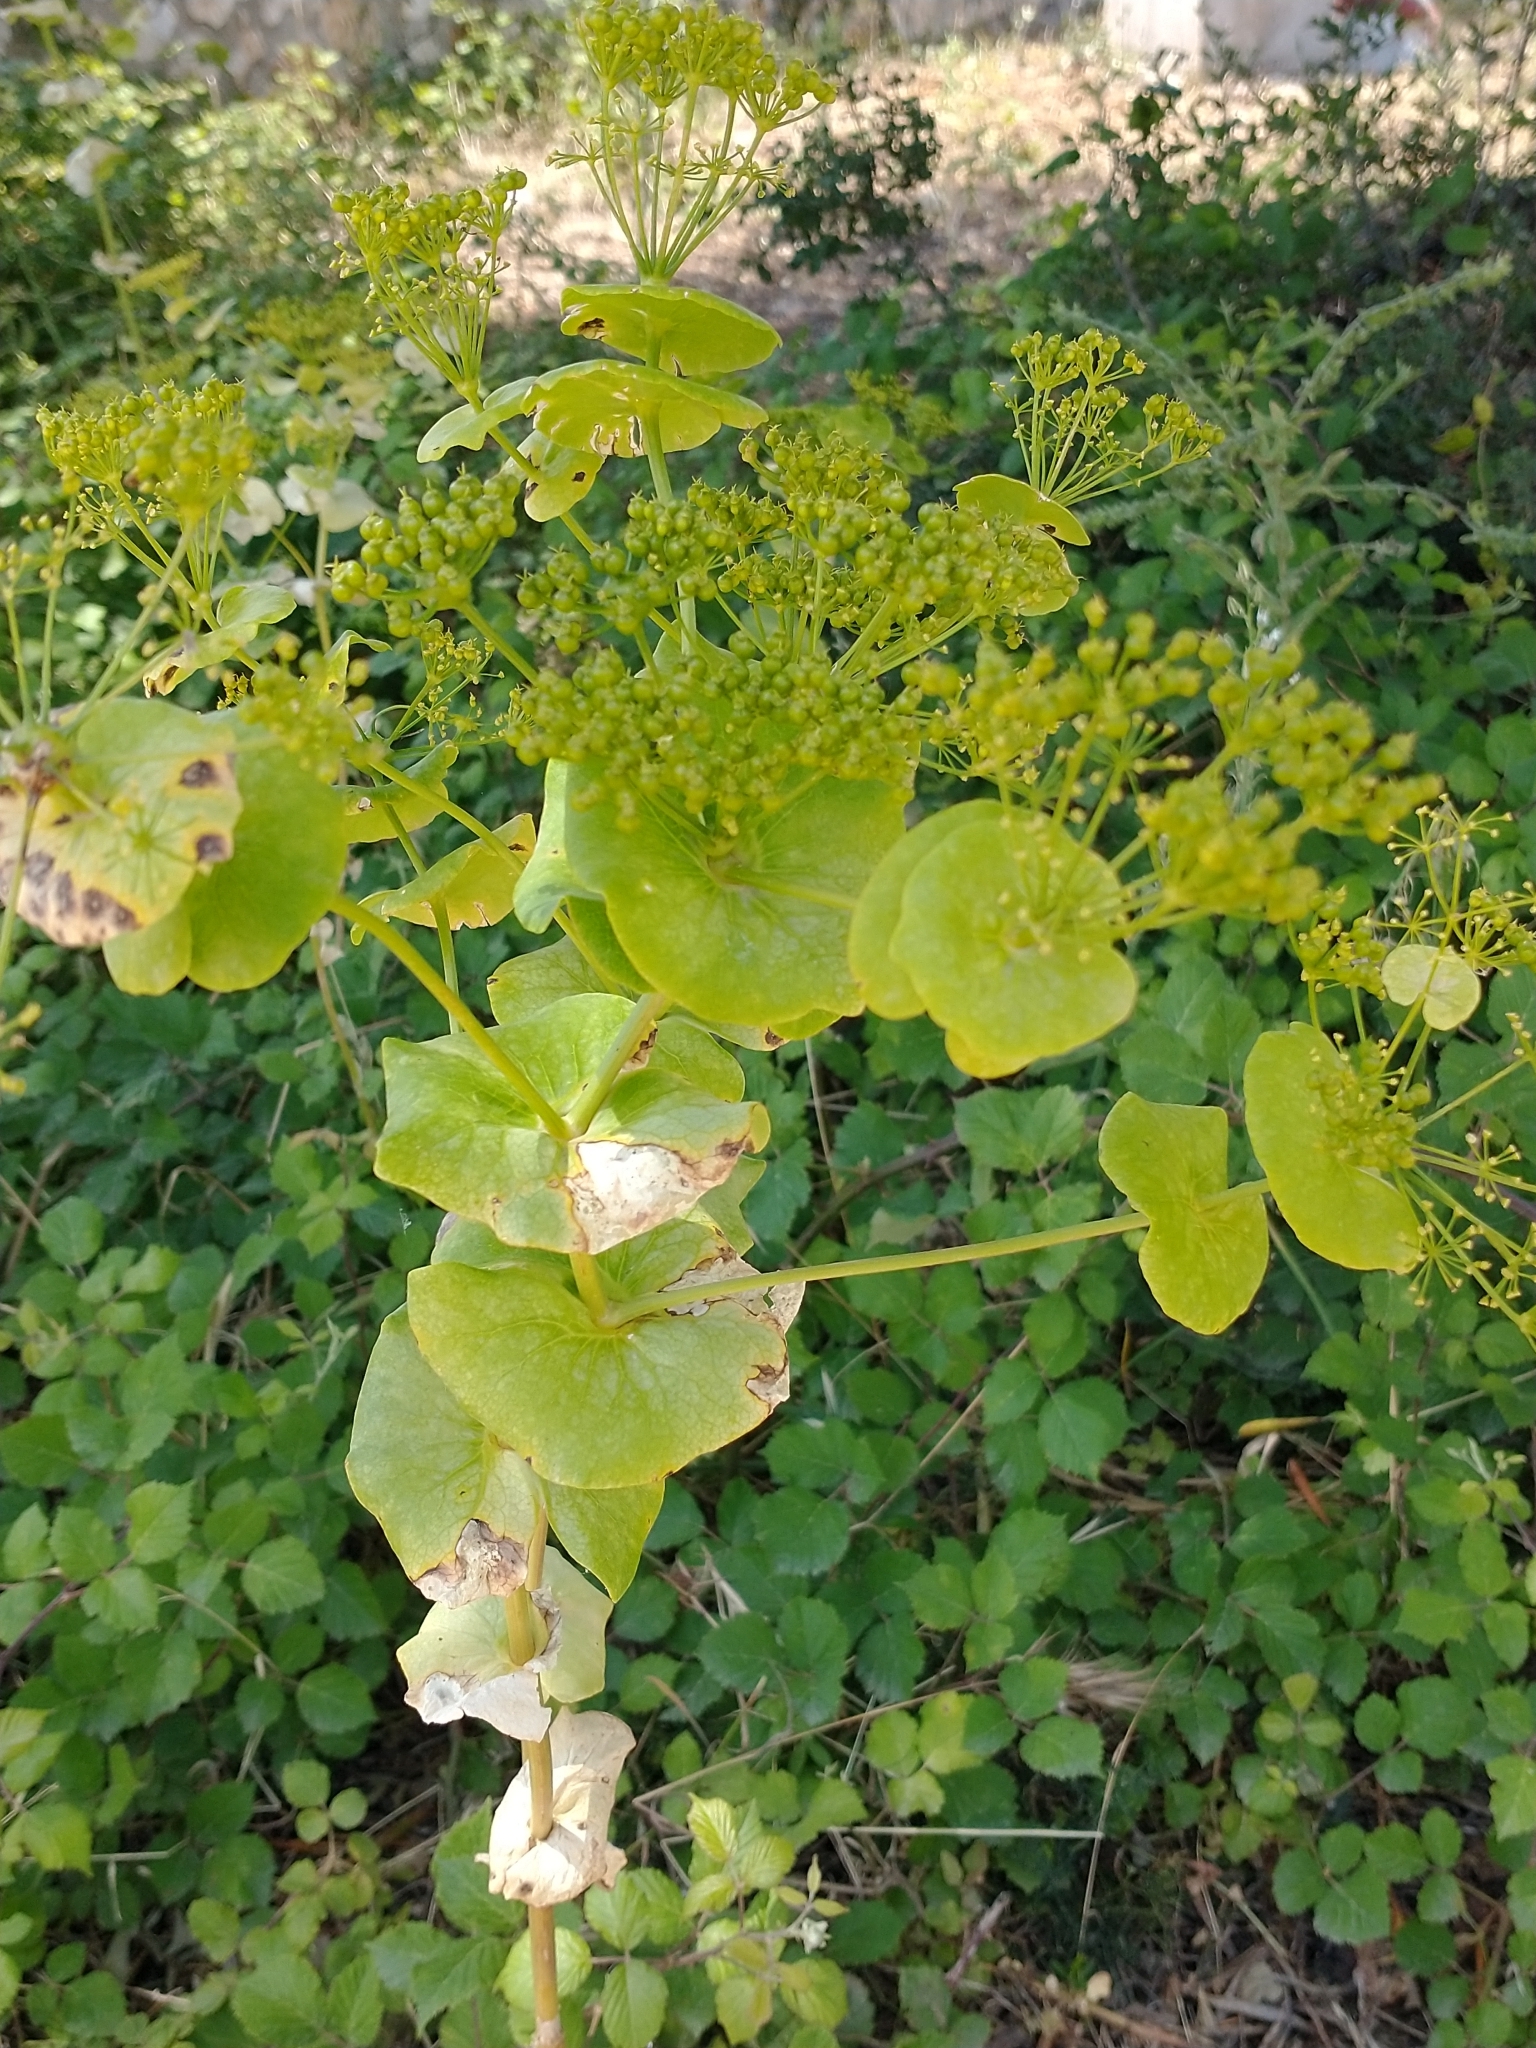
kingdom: Plantae
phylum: Tracheophyta
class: Magnoliopsida
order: Apiales
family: Apiaceae
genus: Smyrnium
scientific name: Smyrnium perfoliatum
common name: Perfoliate alexanders
